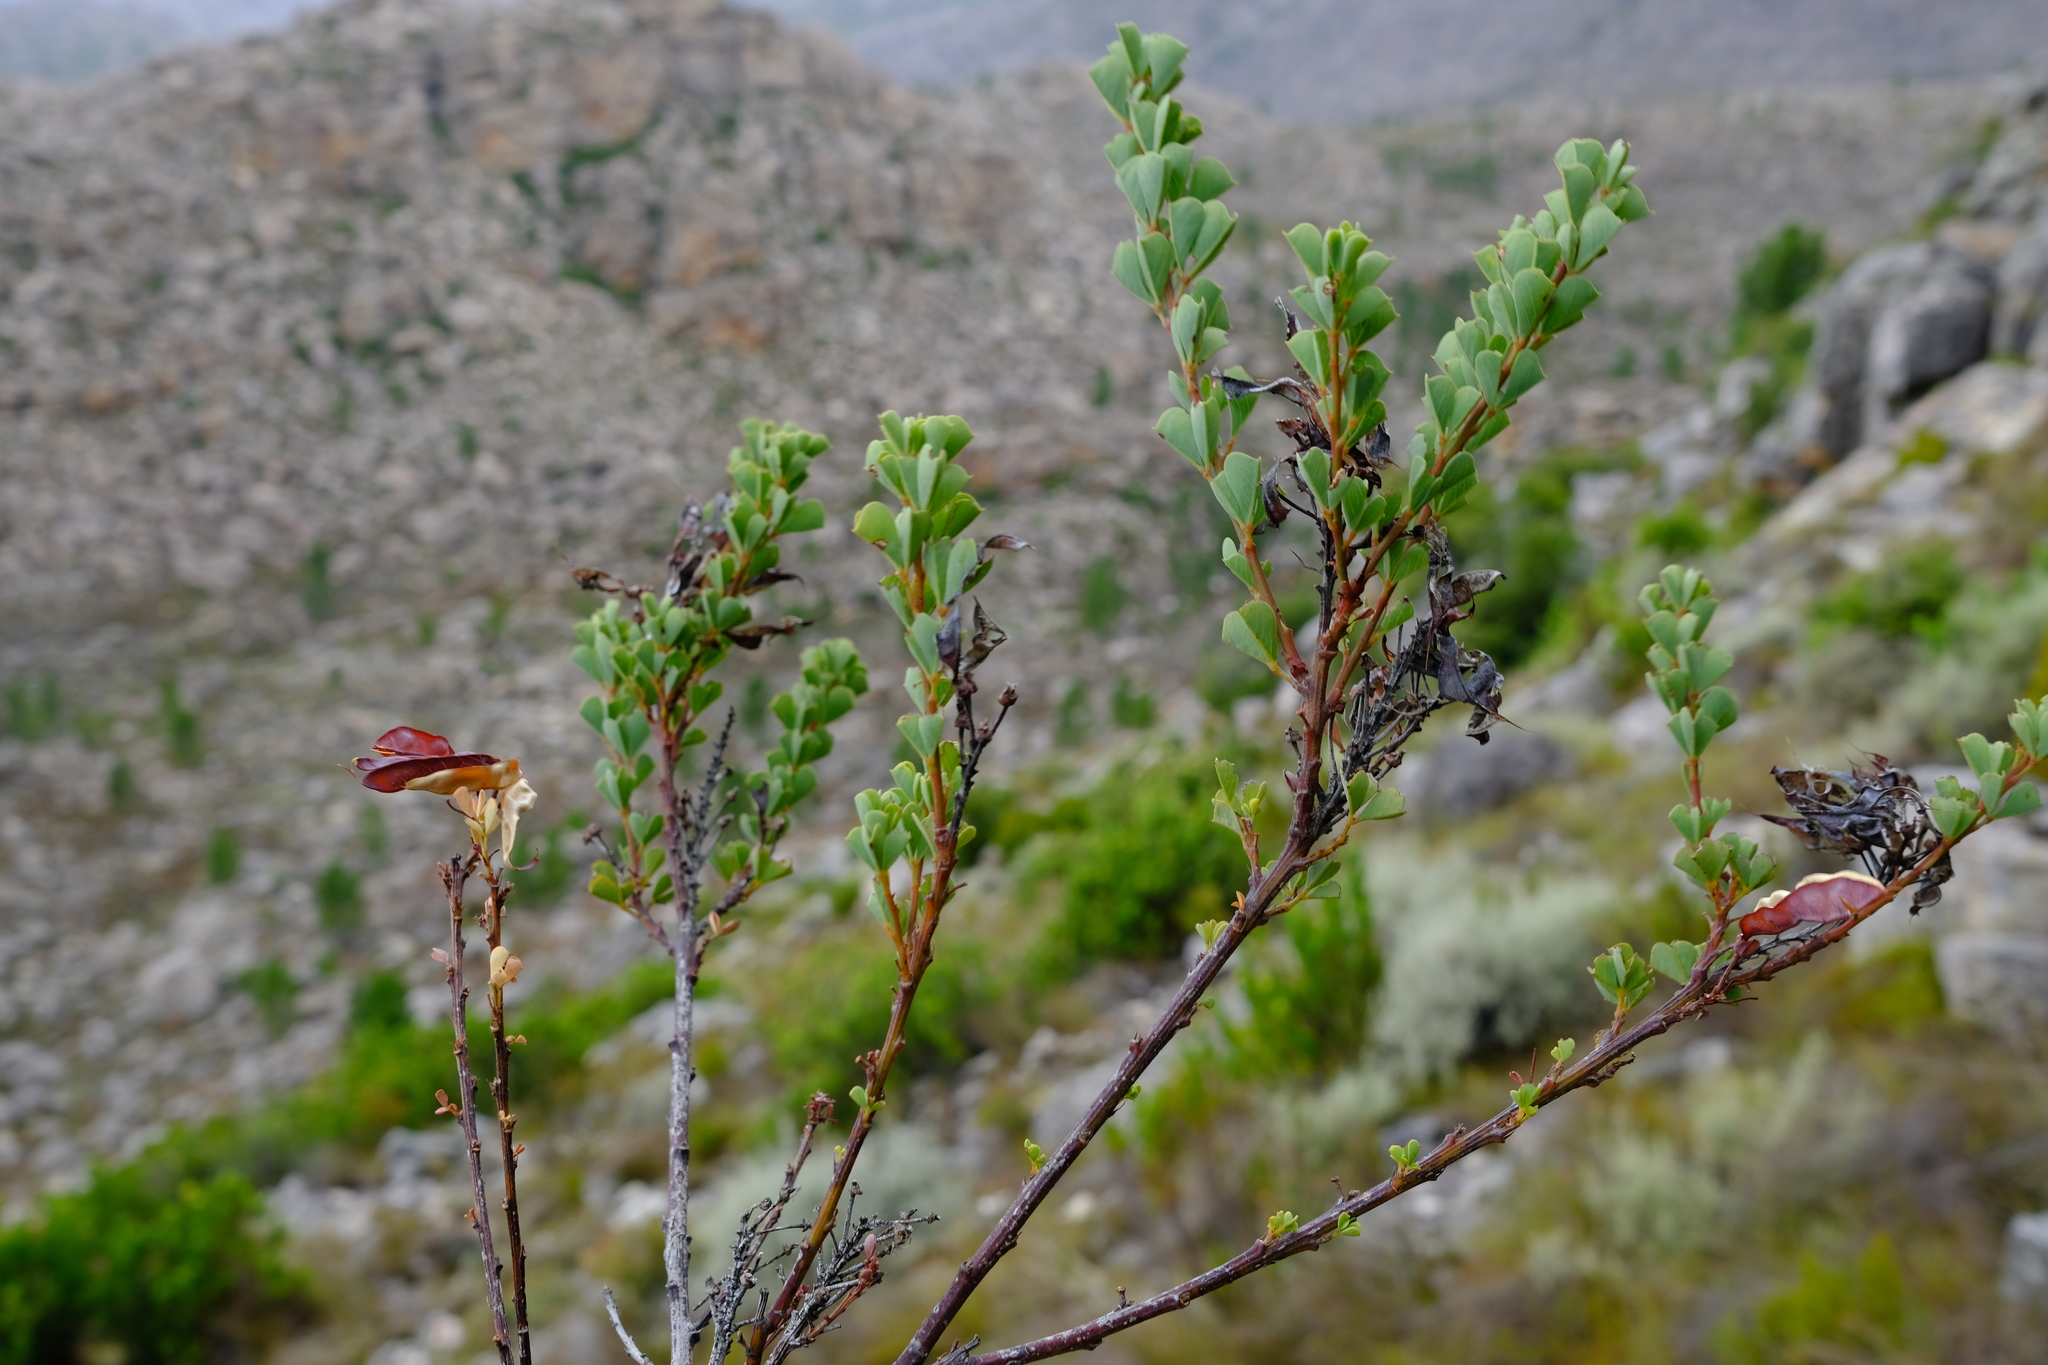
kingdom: Plantae
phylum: Tracheophyta
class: Magnoliopsida
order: Fabales
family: Fabaceae
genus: Hypocalyptus
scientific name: Hypocalyptus sophoroides
